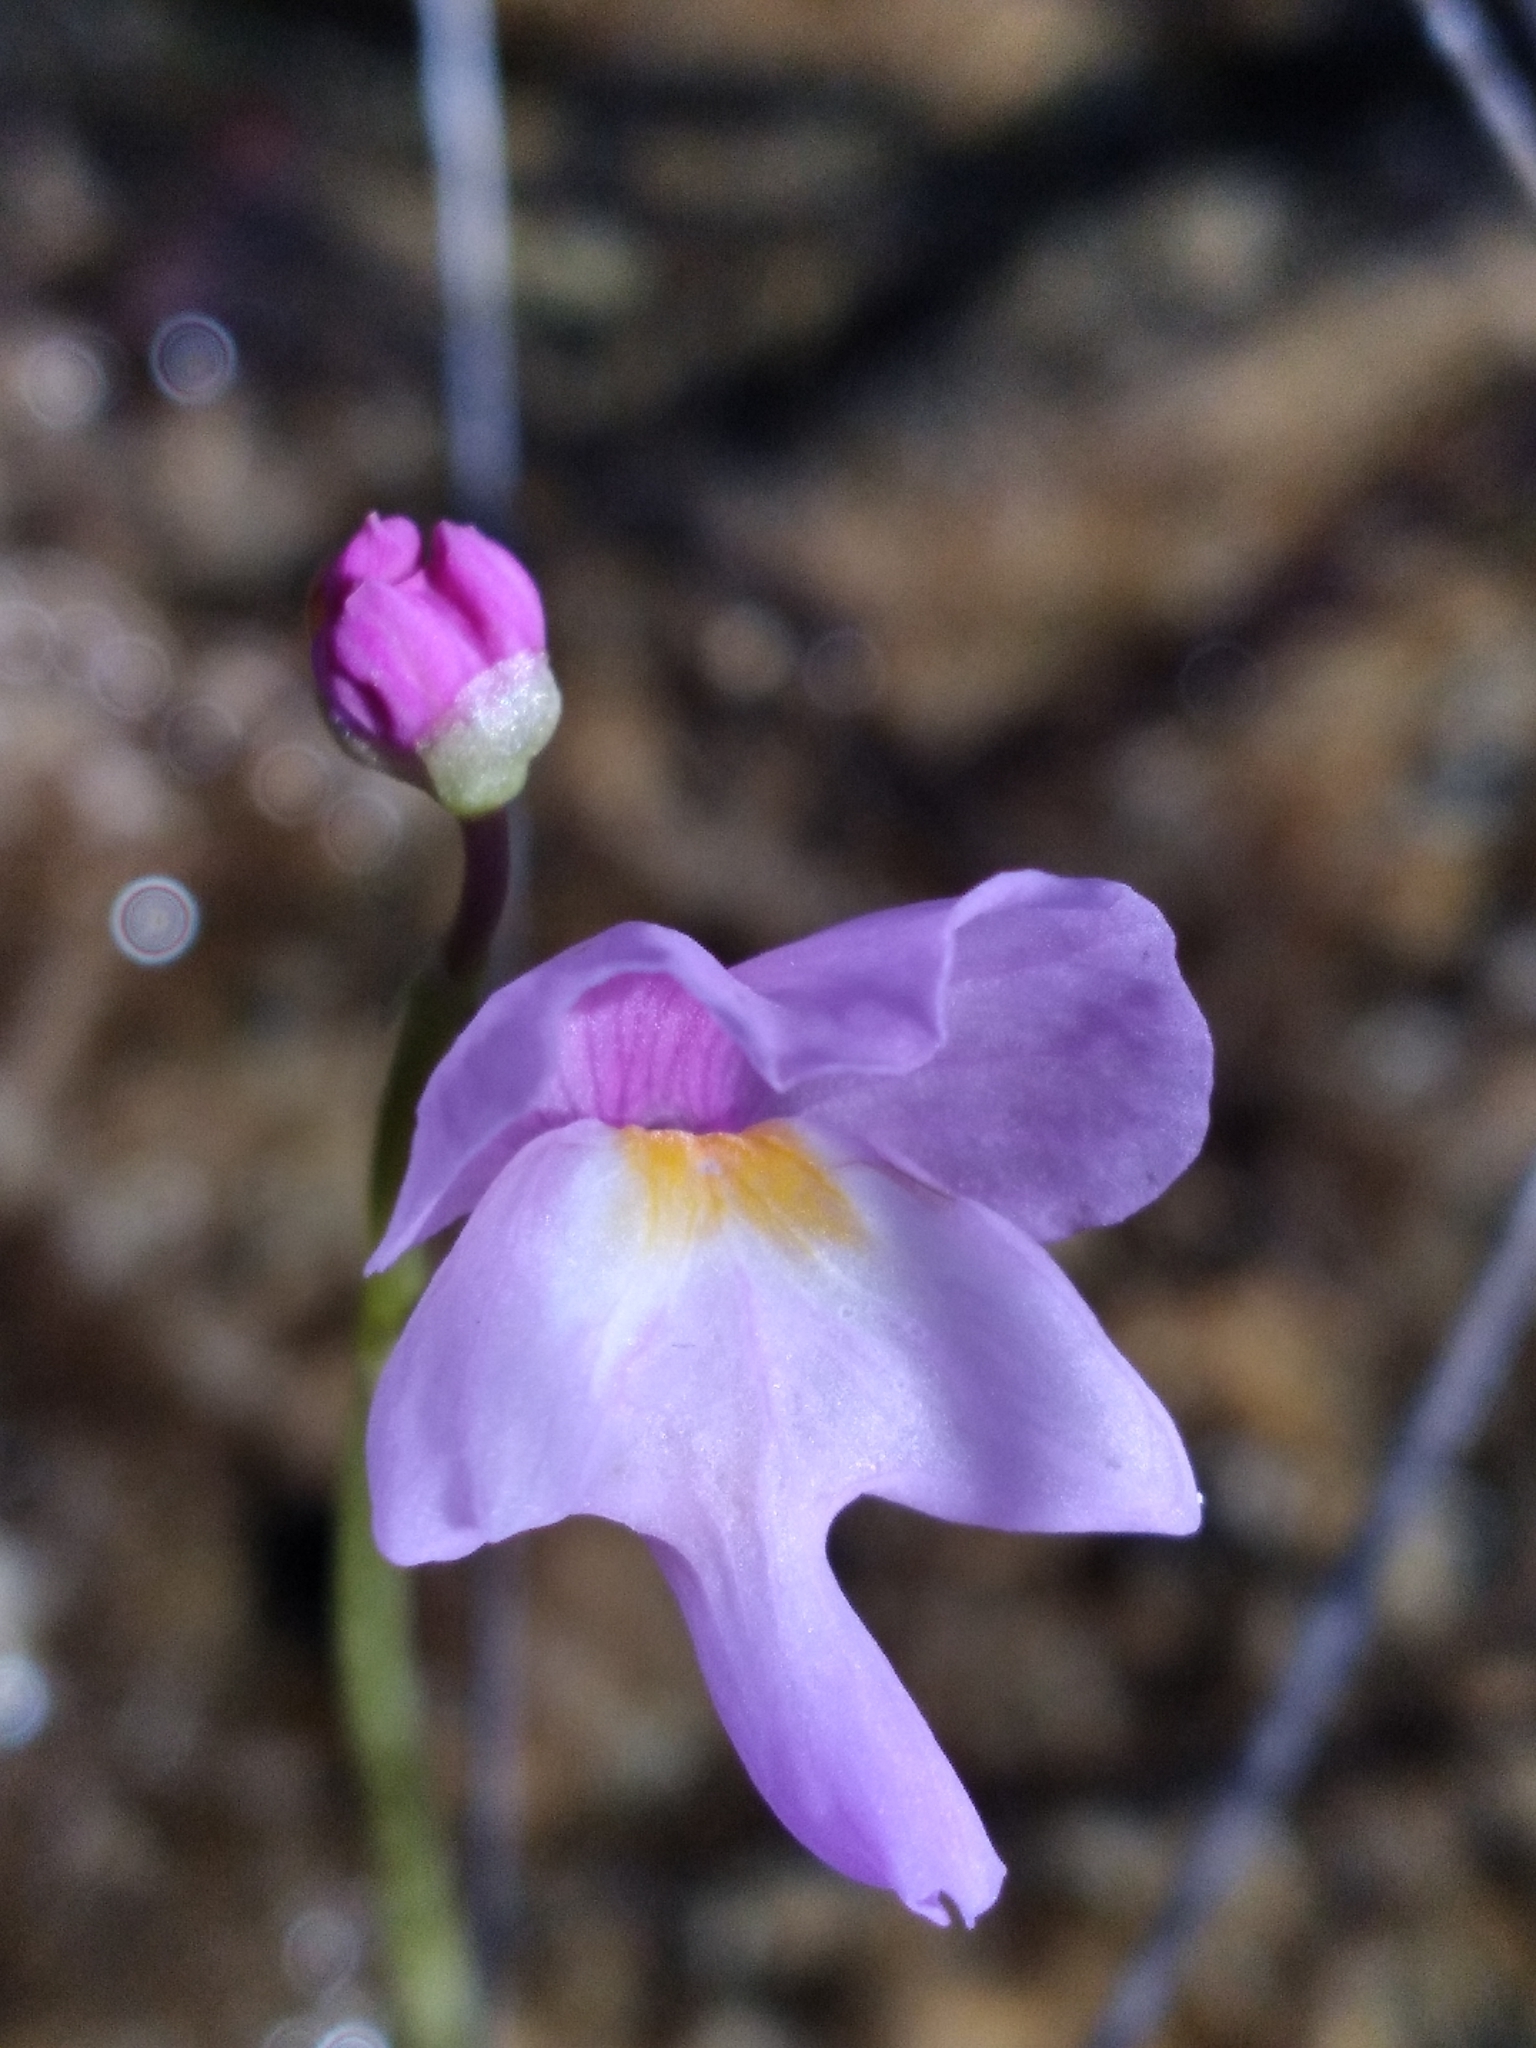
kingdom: Plantae
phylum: Tracheophyta
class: Magnoliopsida
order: Lamiales
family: Lentibulariaceae
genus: Utricularia
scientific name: Utricularia purpurea
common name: Eastern purple bladderwort
